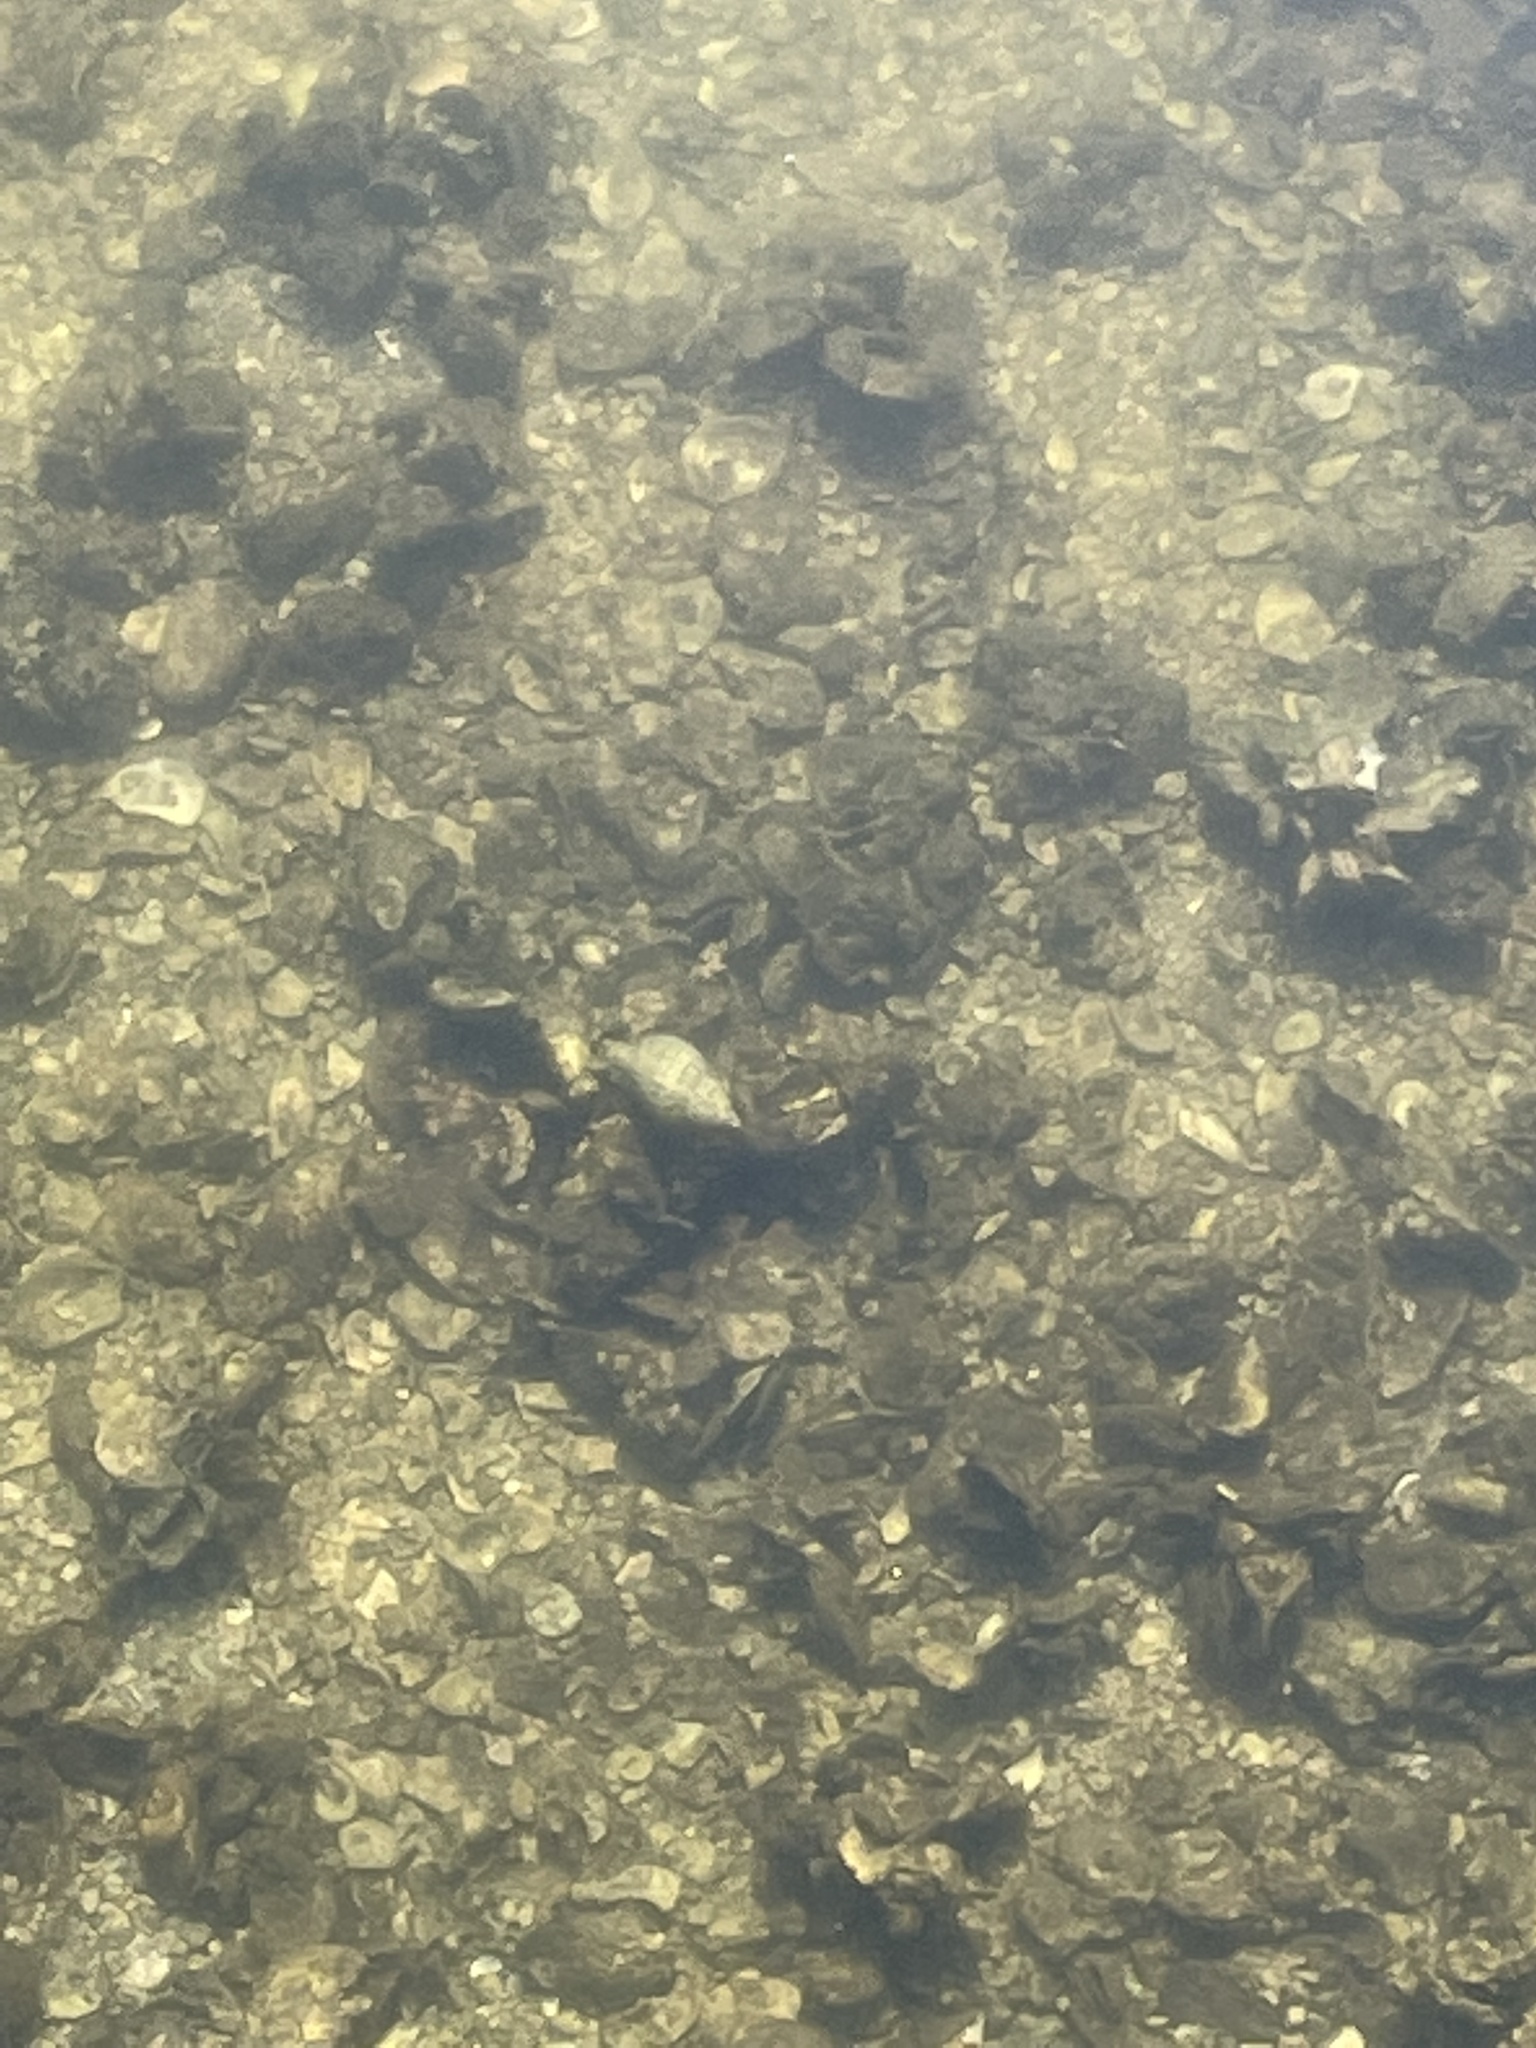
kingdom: Animalia
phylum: Mollusca
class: Gastropoda
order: Neogastropoda
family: Fasciolariidae
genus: Cinctura
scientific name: Cinctura hunteria
